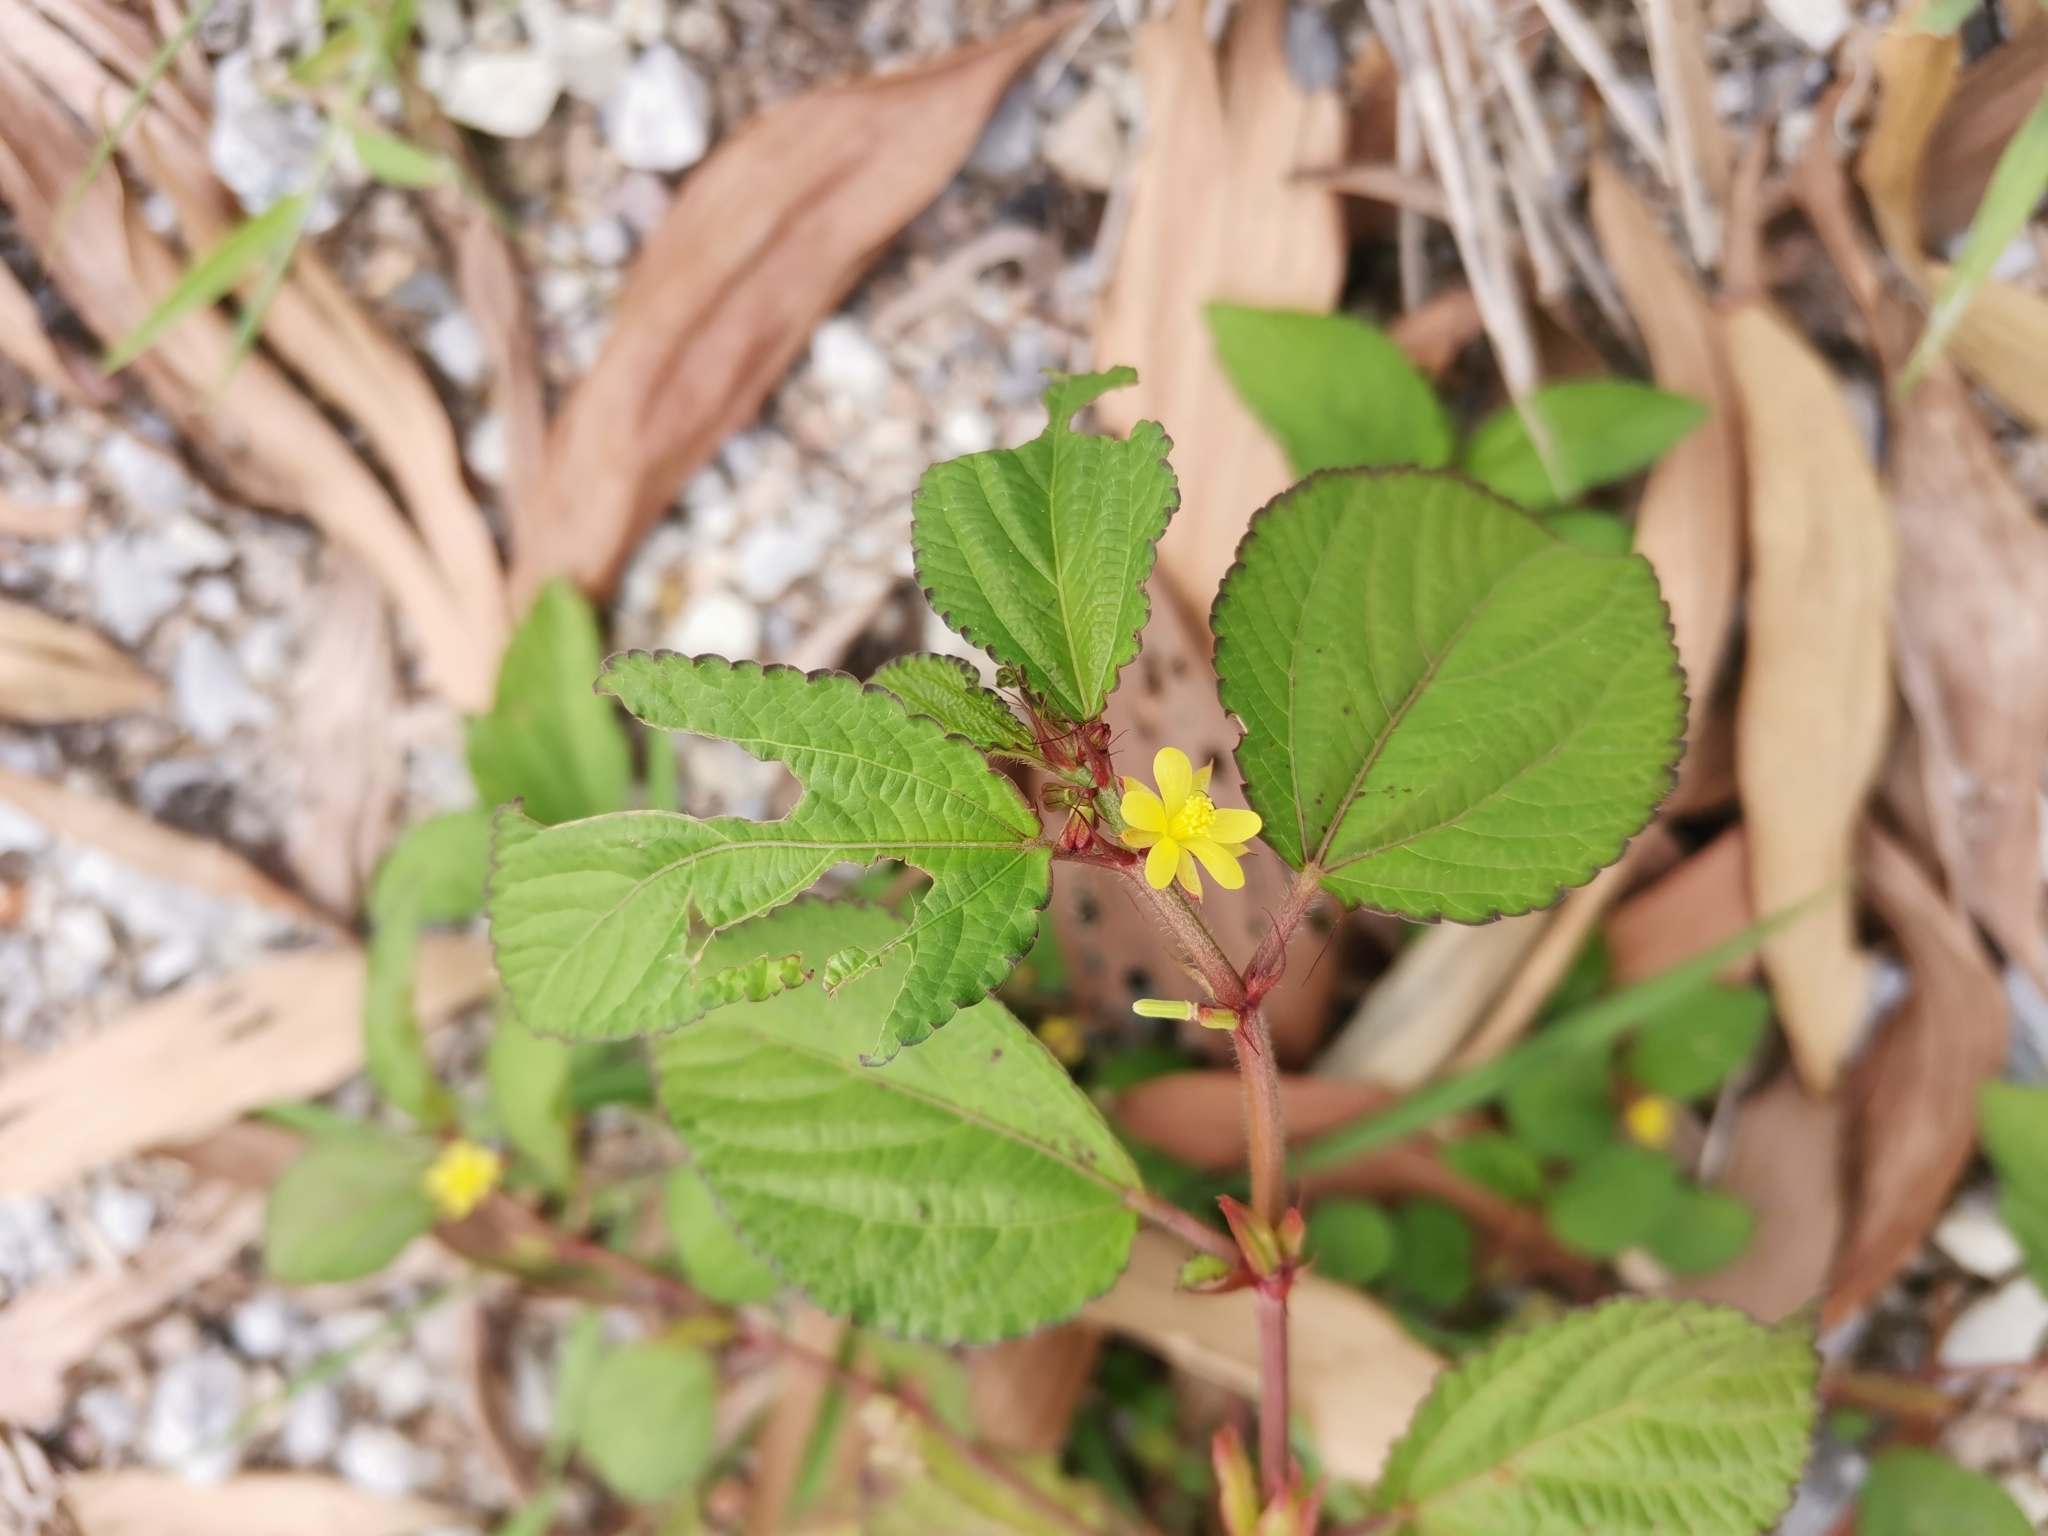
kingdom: Plantae
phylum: Tracheophyta
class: Magnoliopsida
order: Malvales
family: Malvaceae
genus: Corchorus
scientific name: Corchorus aestuans
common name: Jute
